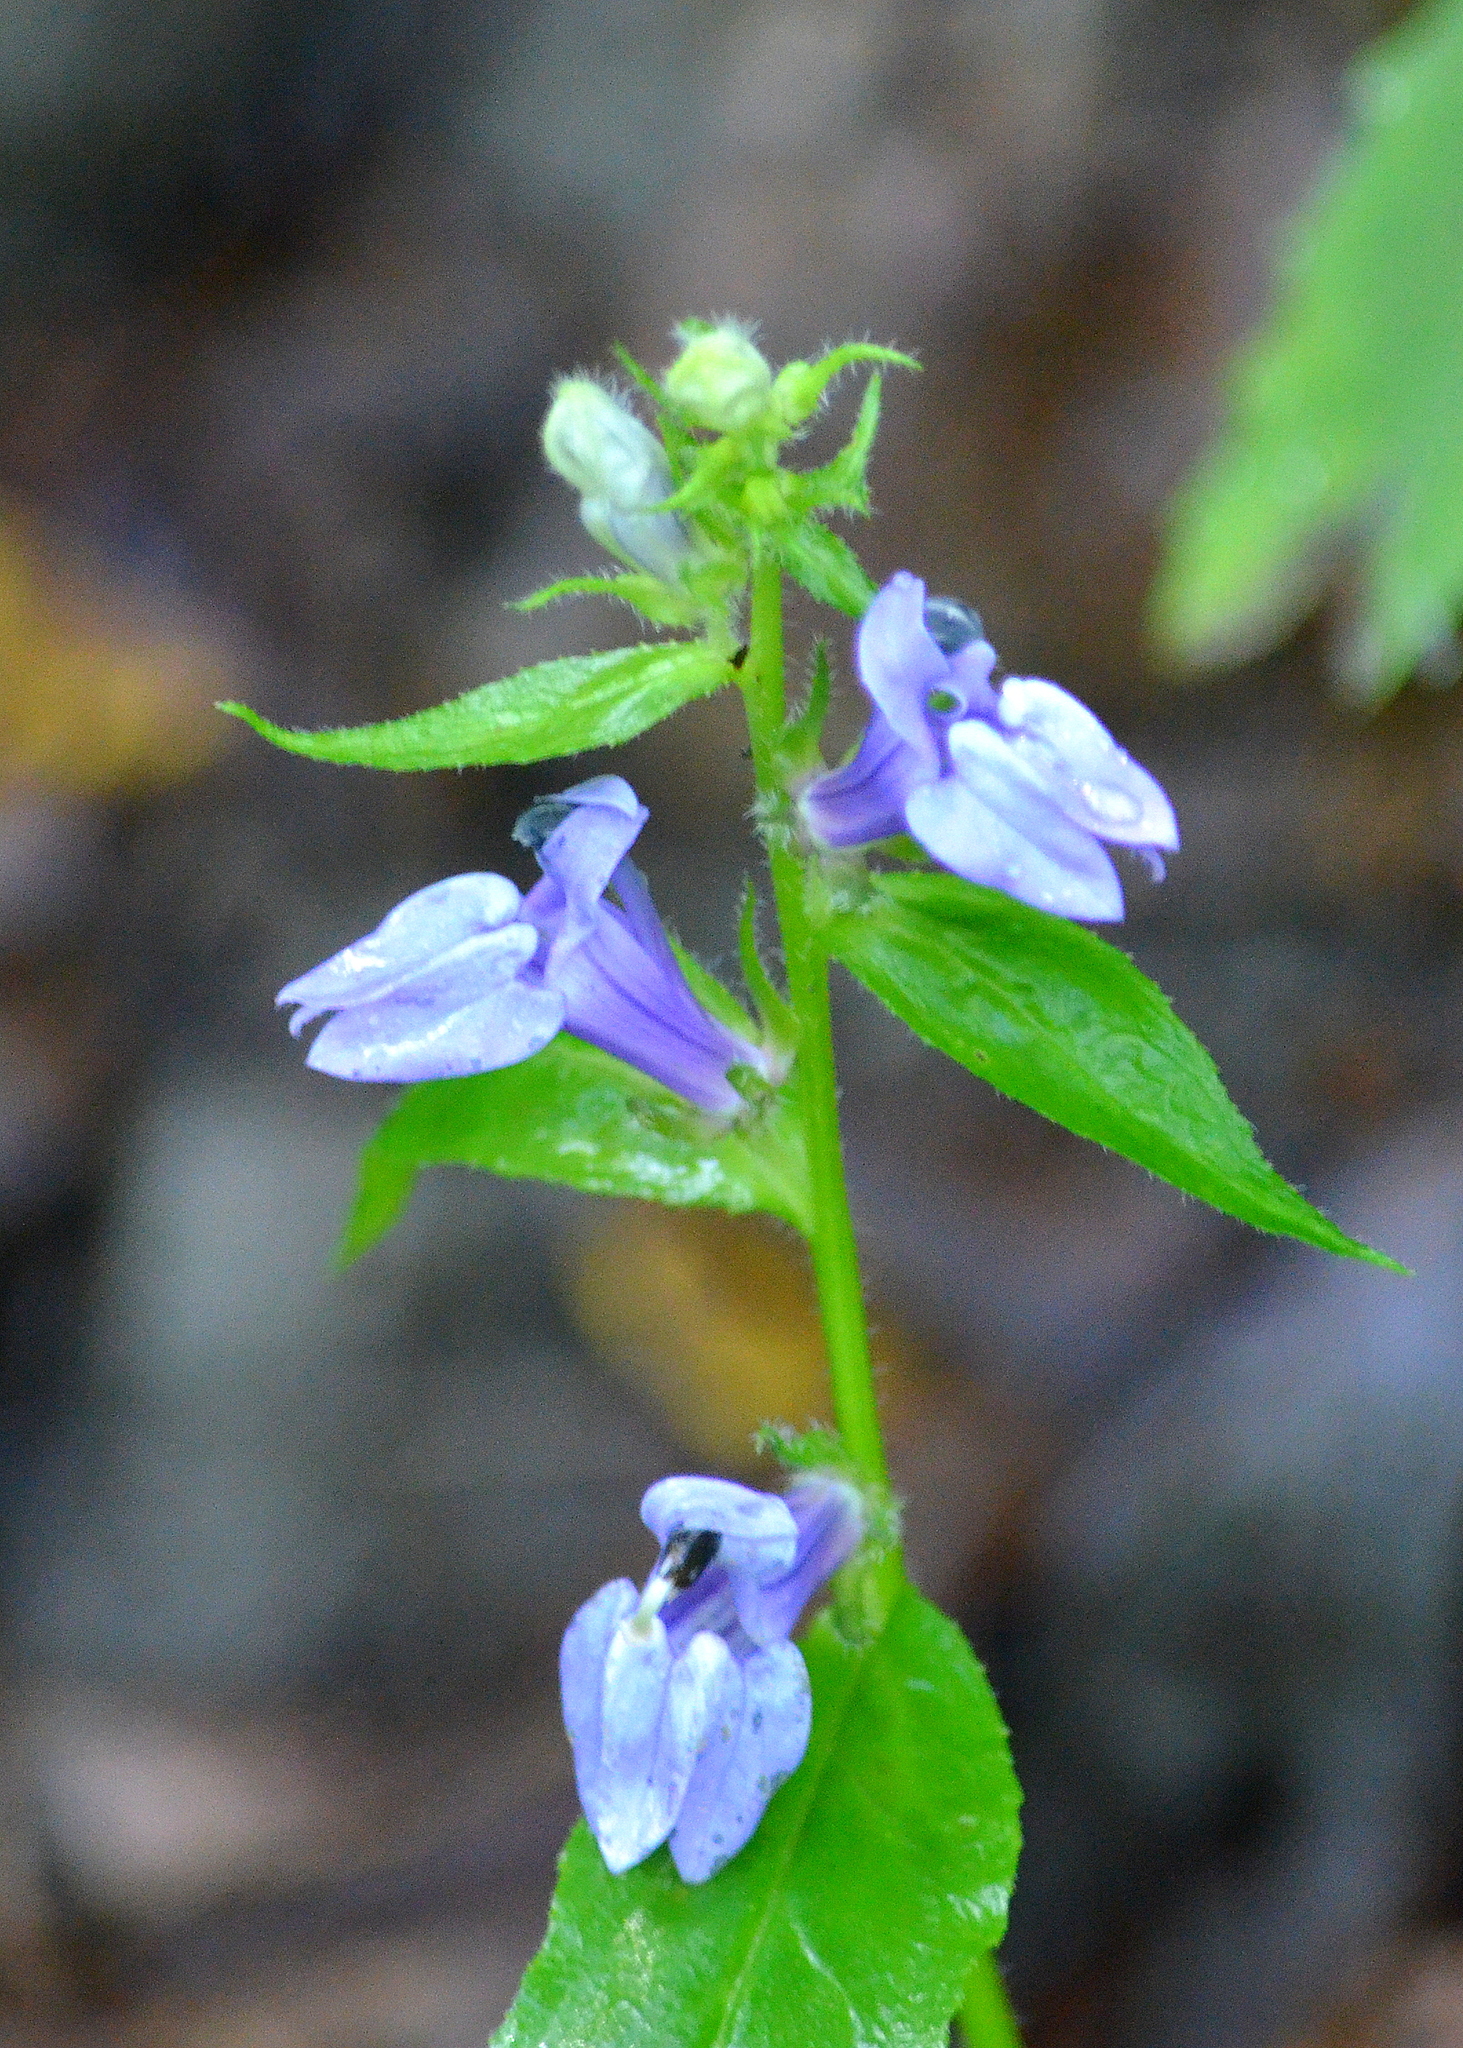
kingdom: Plantae
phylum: Tracheophyta
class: Magnoliopsida
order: Asterales
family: Campanulaceae
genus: Lobelia
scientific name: Lobelia siphilitica
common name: Great lobelia
